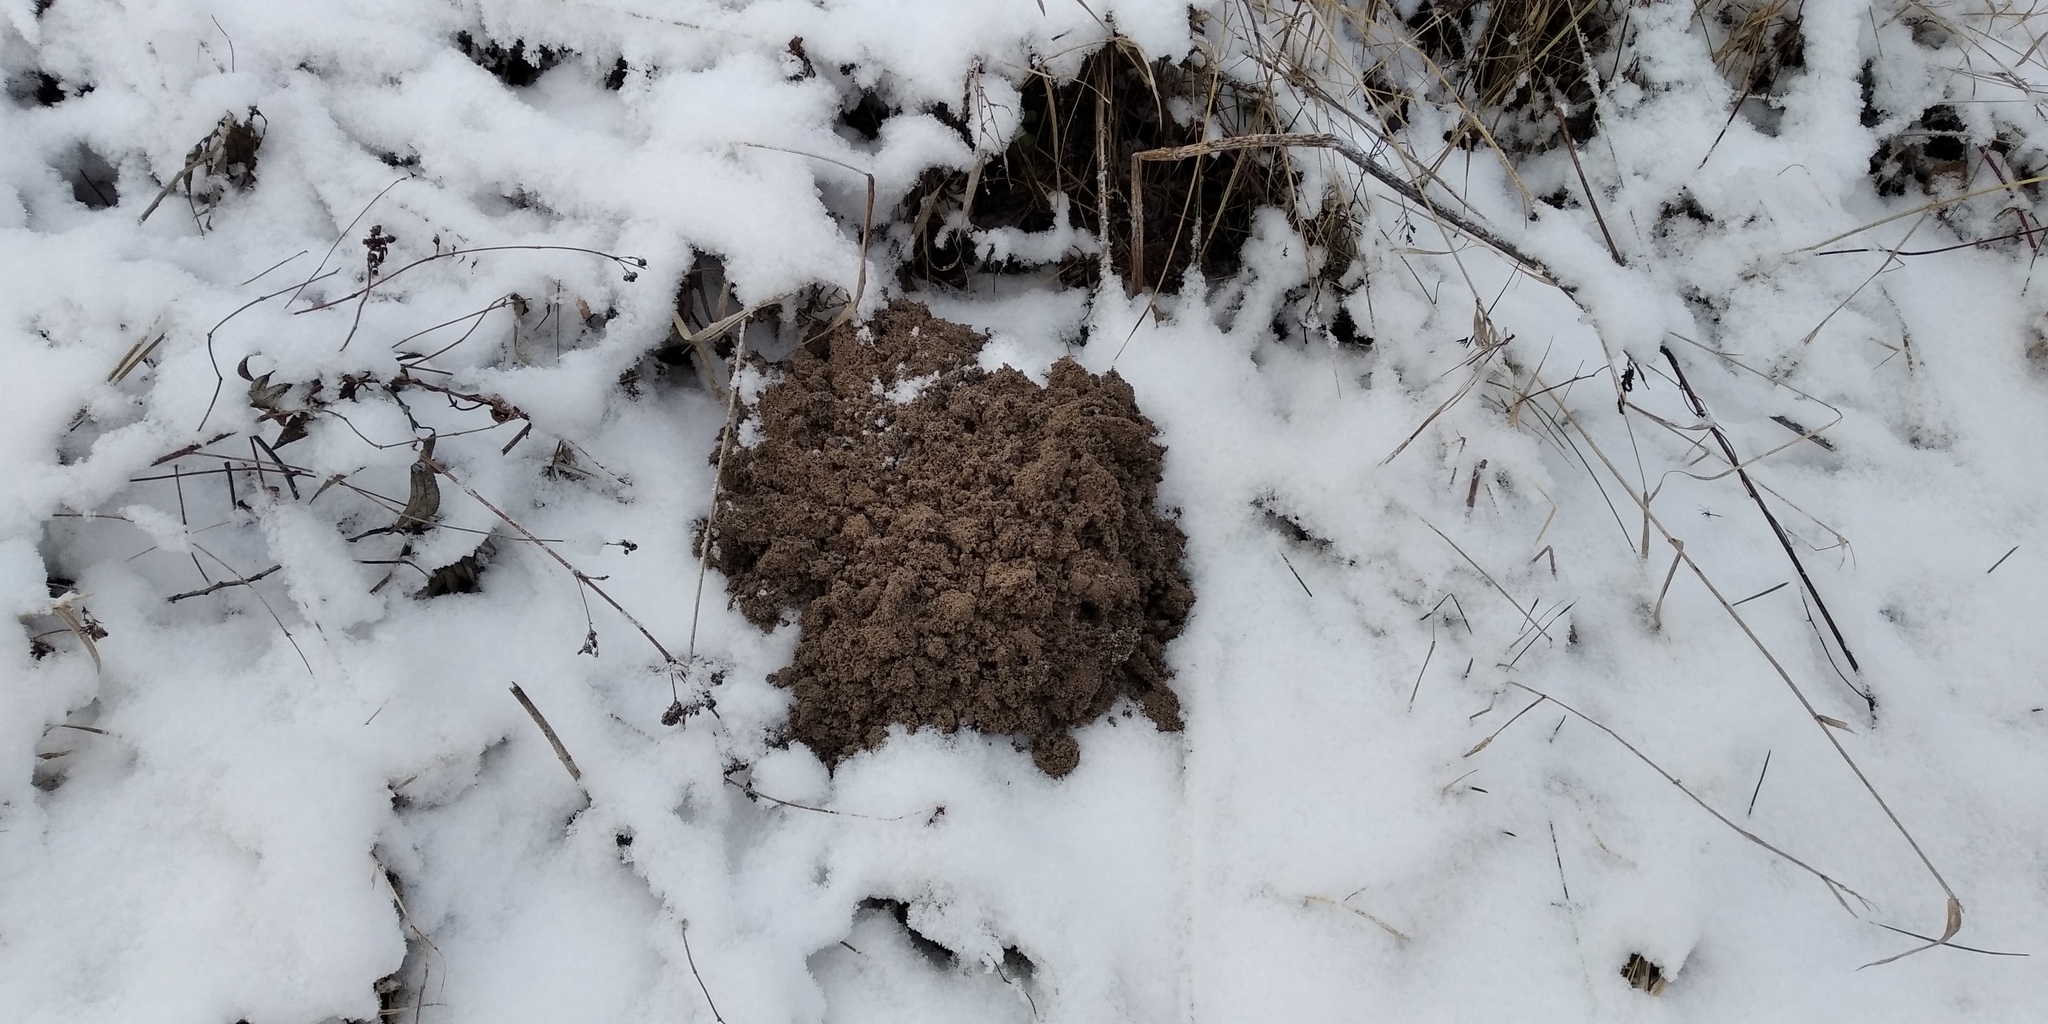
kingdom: Animalia
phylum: Chordata
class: Mammalia
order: Soricomorpha
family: Talpidae
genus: Talpa
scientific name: Talpa europaea
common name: European mole
